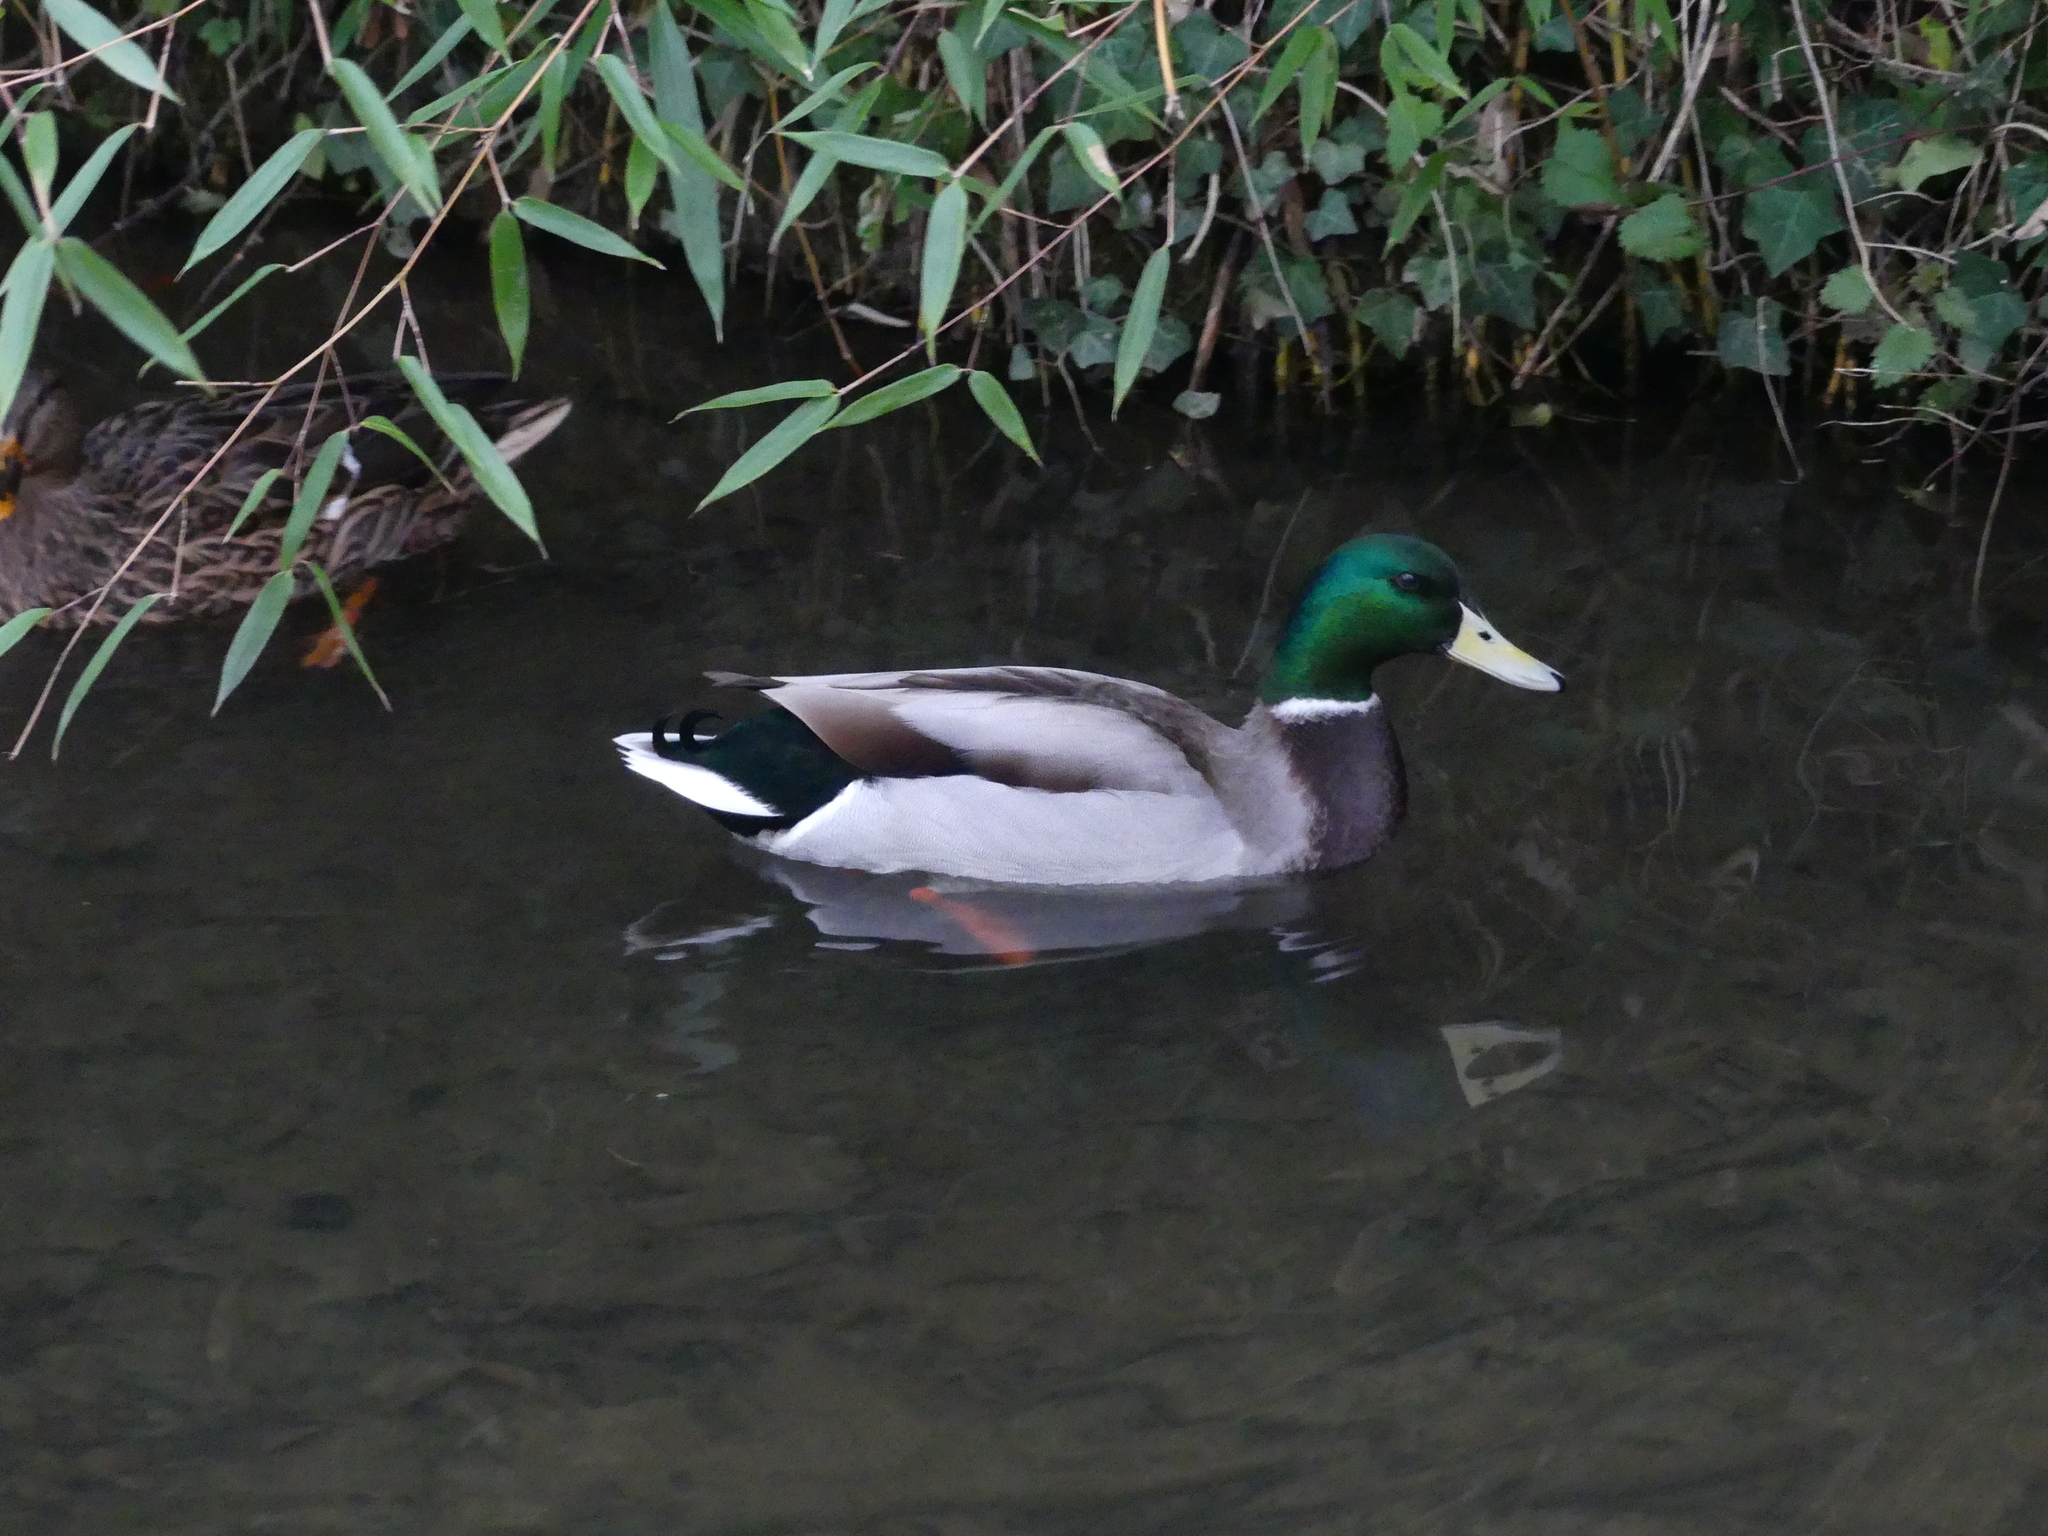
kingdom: Animalia
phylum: Chordata
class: Aves
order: Anseriformes
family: Anatidae
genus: Anas
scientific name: Anas platyrhynchos
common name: Mallard
